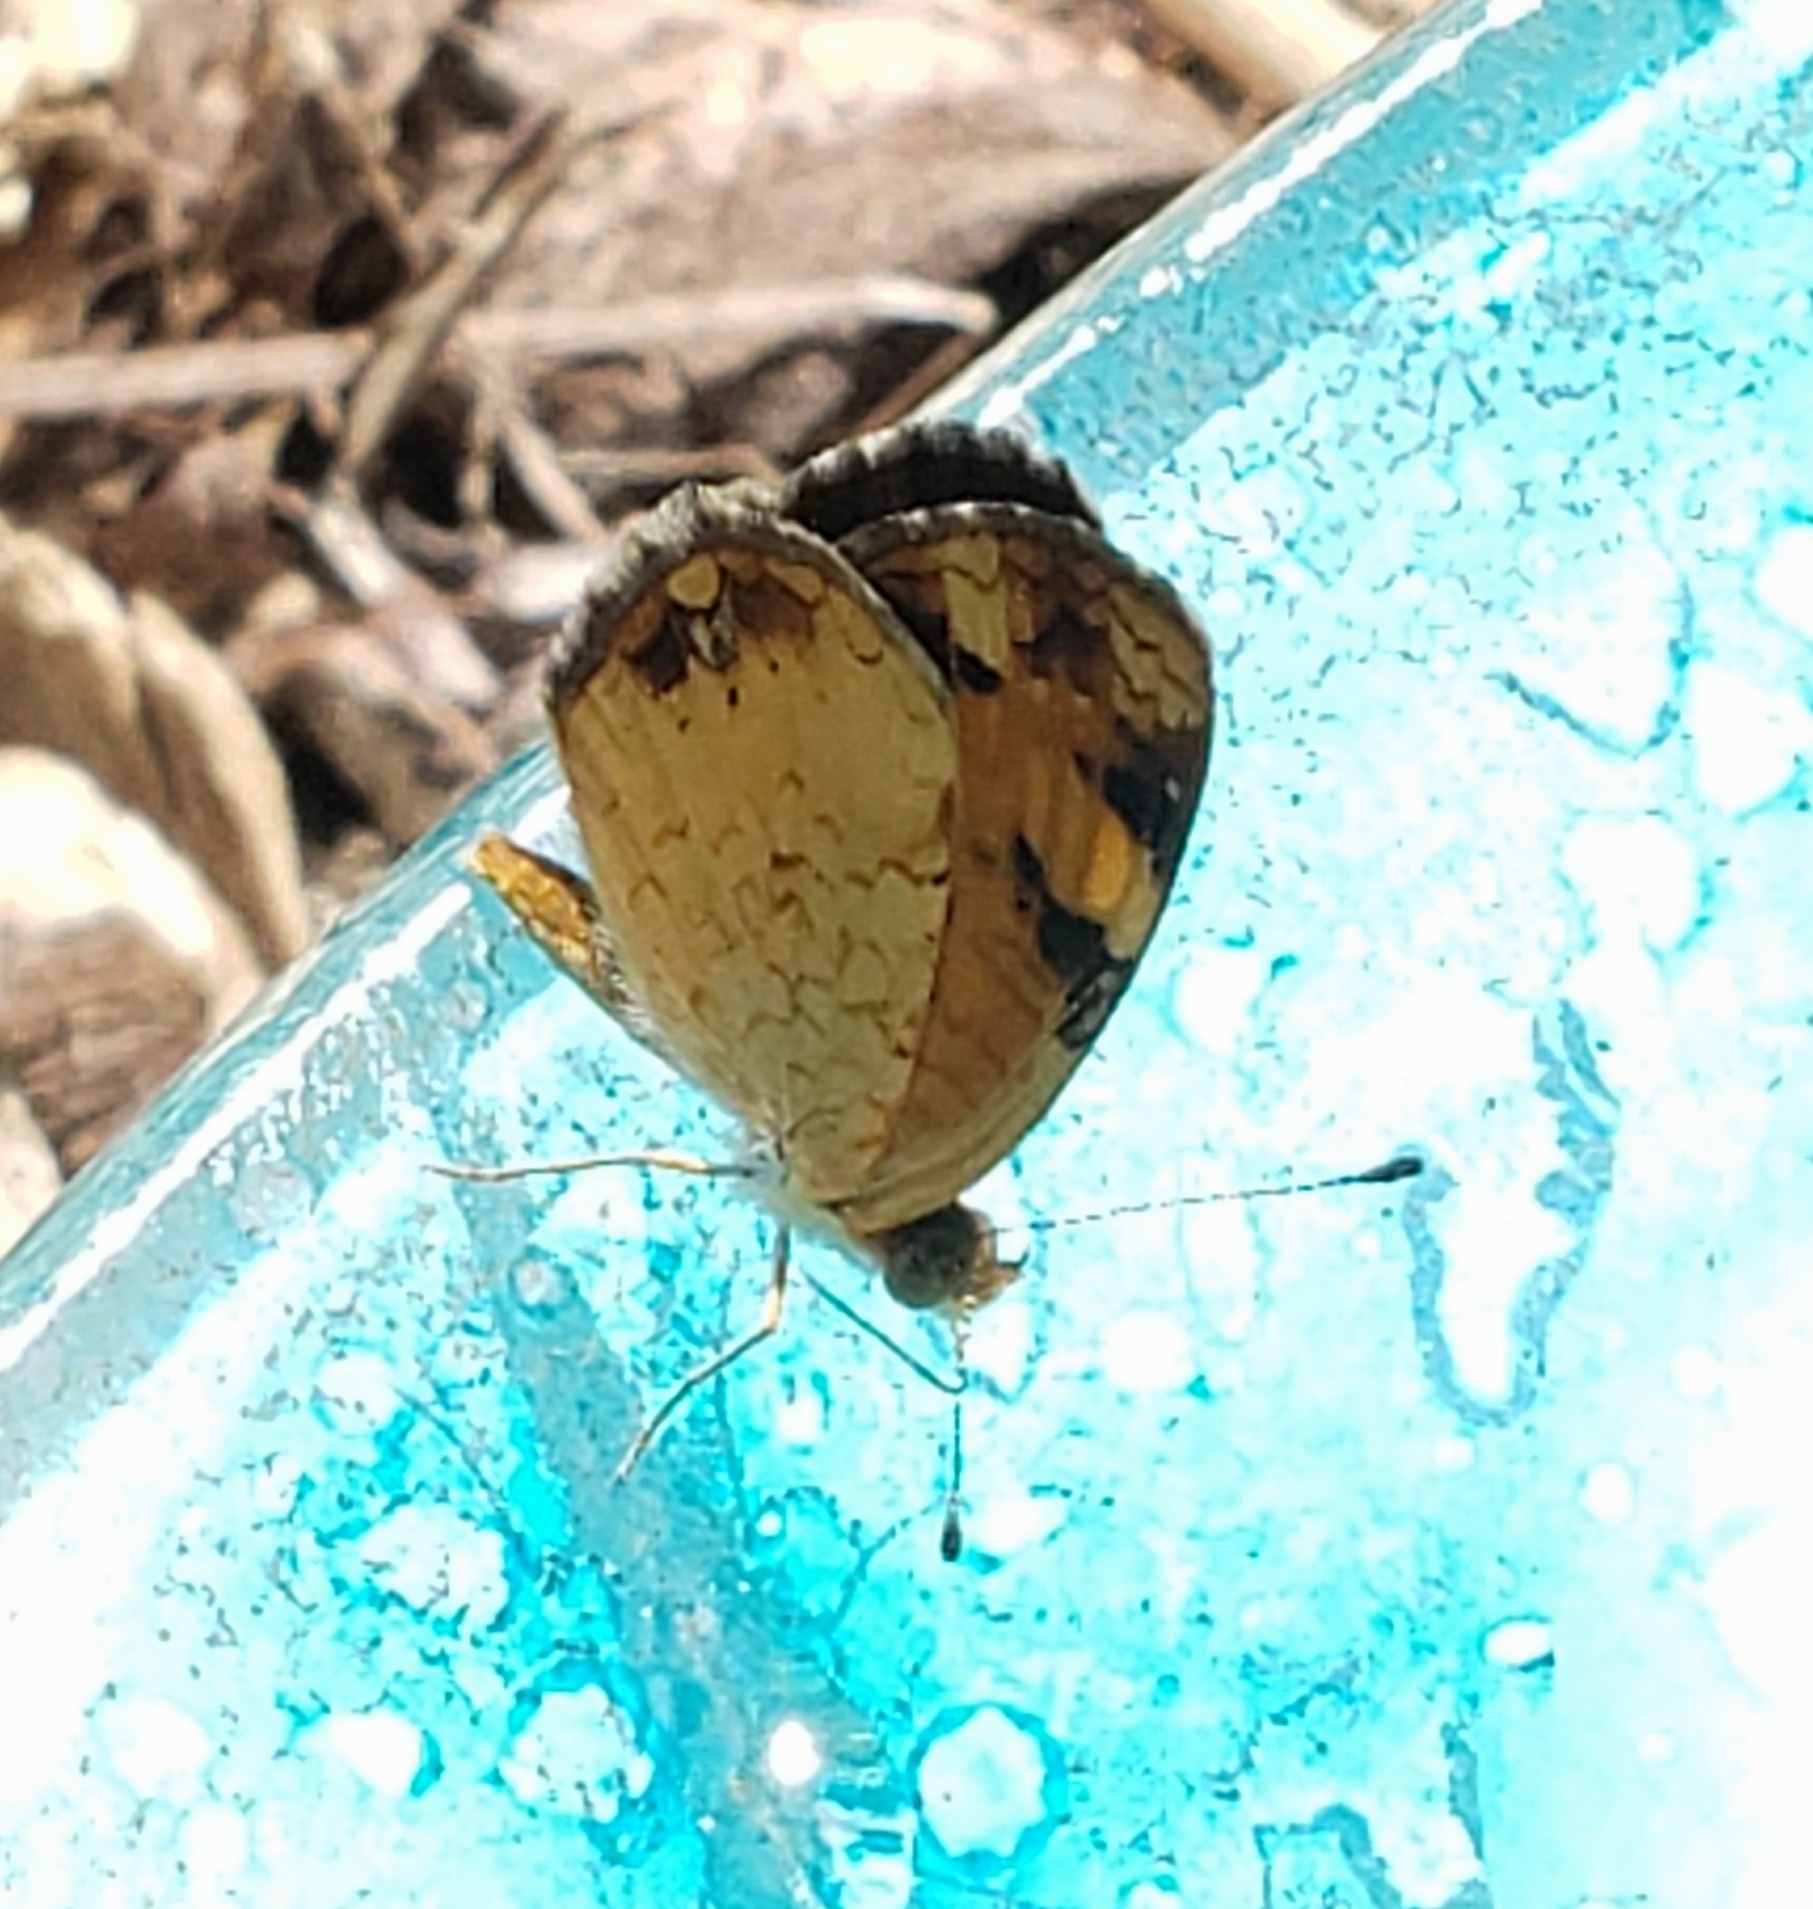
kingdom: Animalia
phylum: Arthropoda
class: Insecta
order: Lepidoptera
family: Nymphalidae
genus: Phyciodes
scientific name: Phyciodes tharos
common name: Pearl crescent
